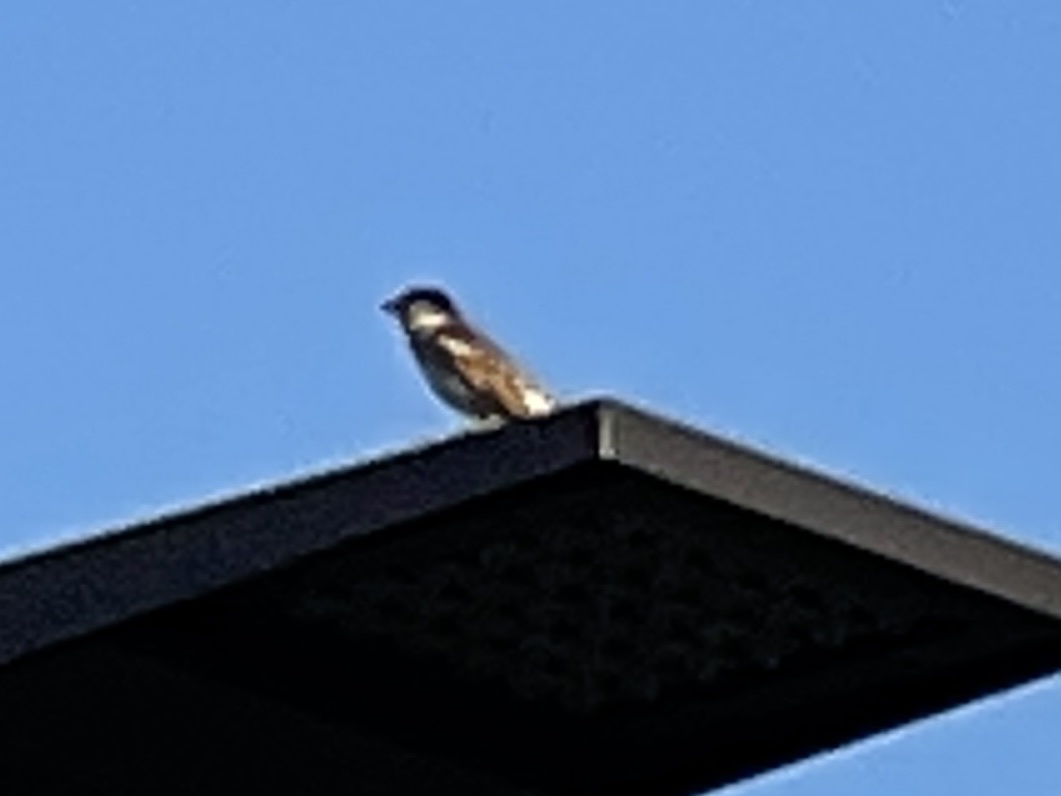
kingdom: Animalia
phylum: Chordata
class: Aves
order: Passeriformes
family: Passeridae
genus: Passer
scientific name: Passer domesticus
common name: House sparrow
